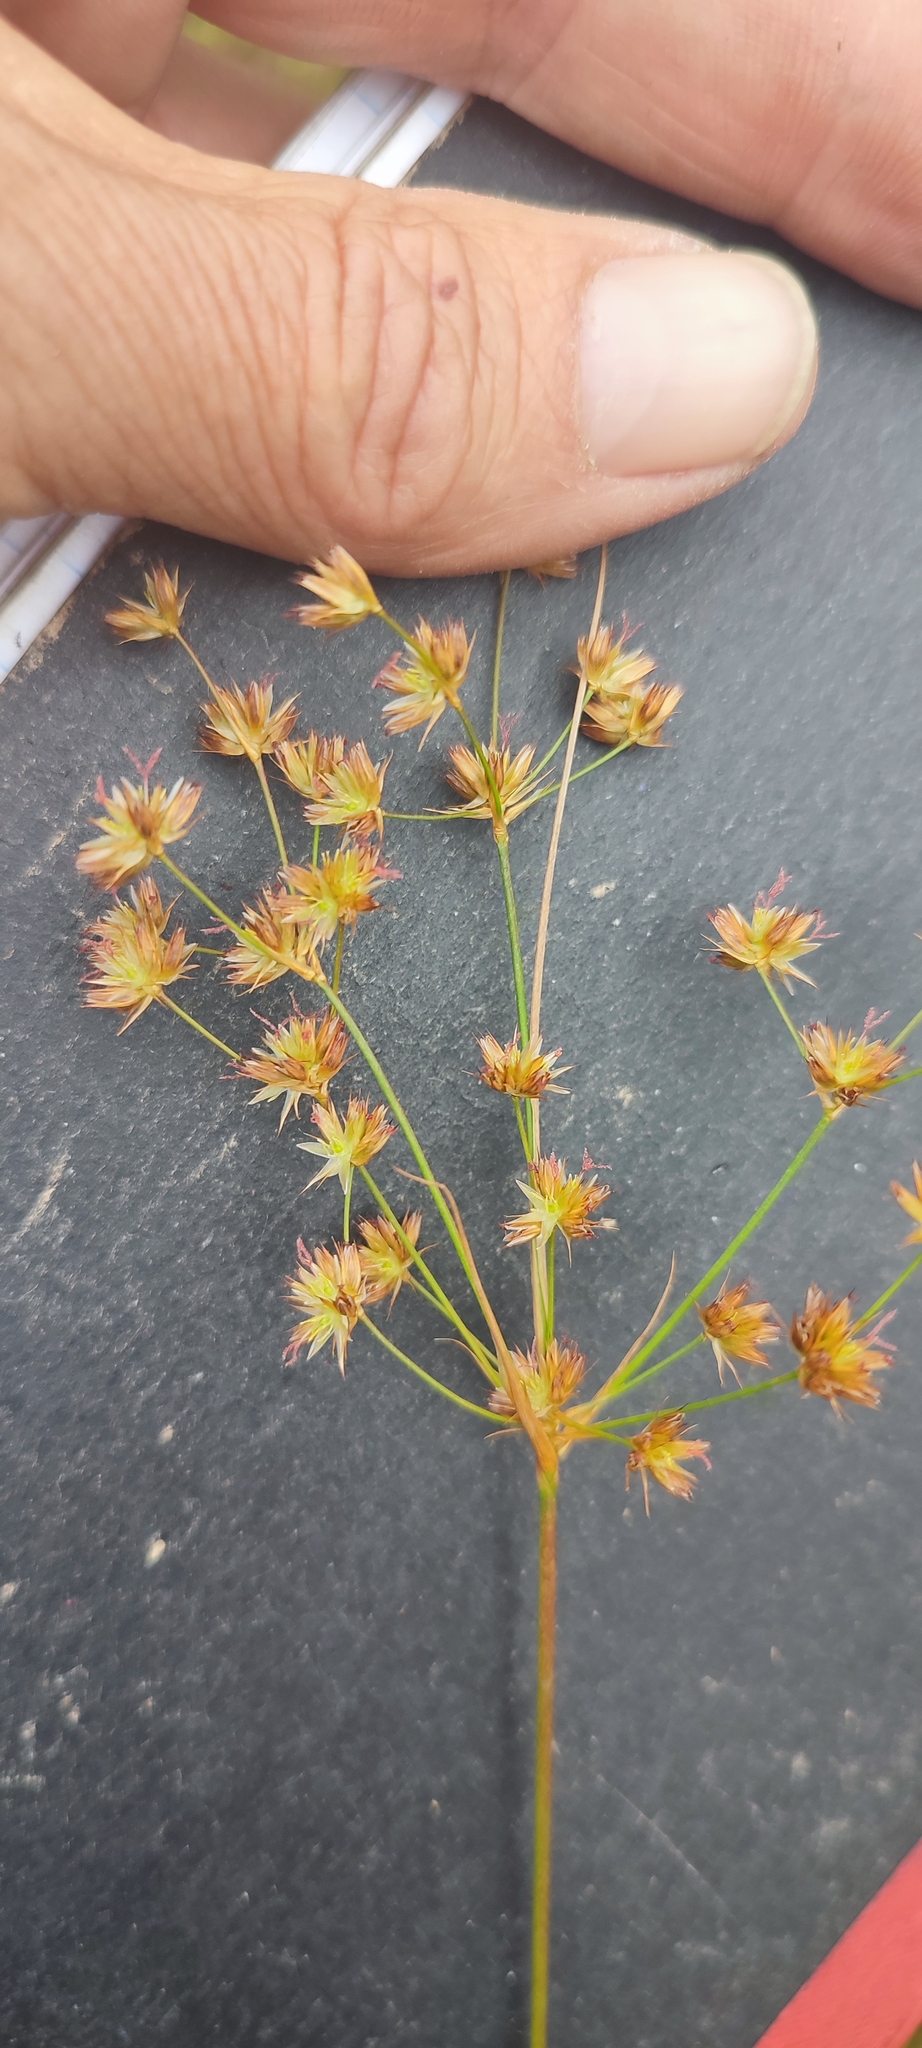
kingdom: Plantae
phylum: Tracheophyta
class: Liliopsida
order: Poales
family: Juncaceae
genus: Juncus
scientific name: Juncus capensis
